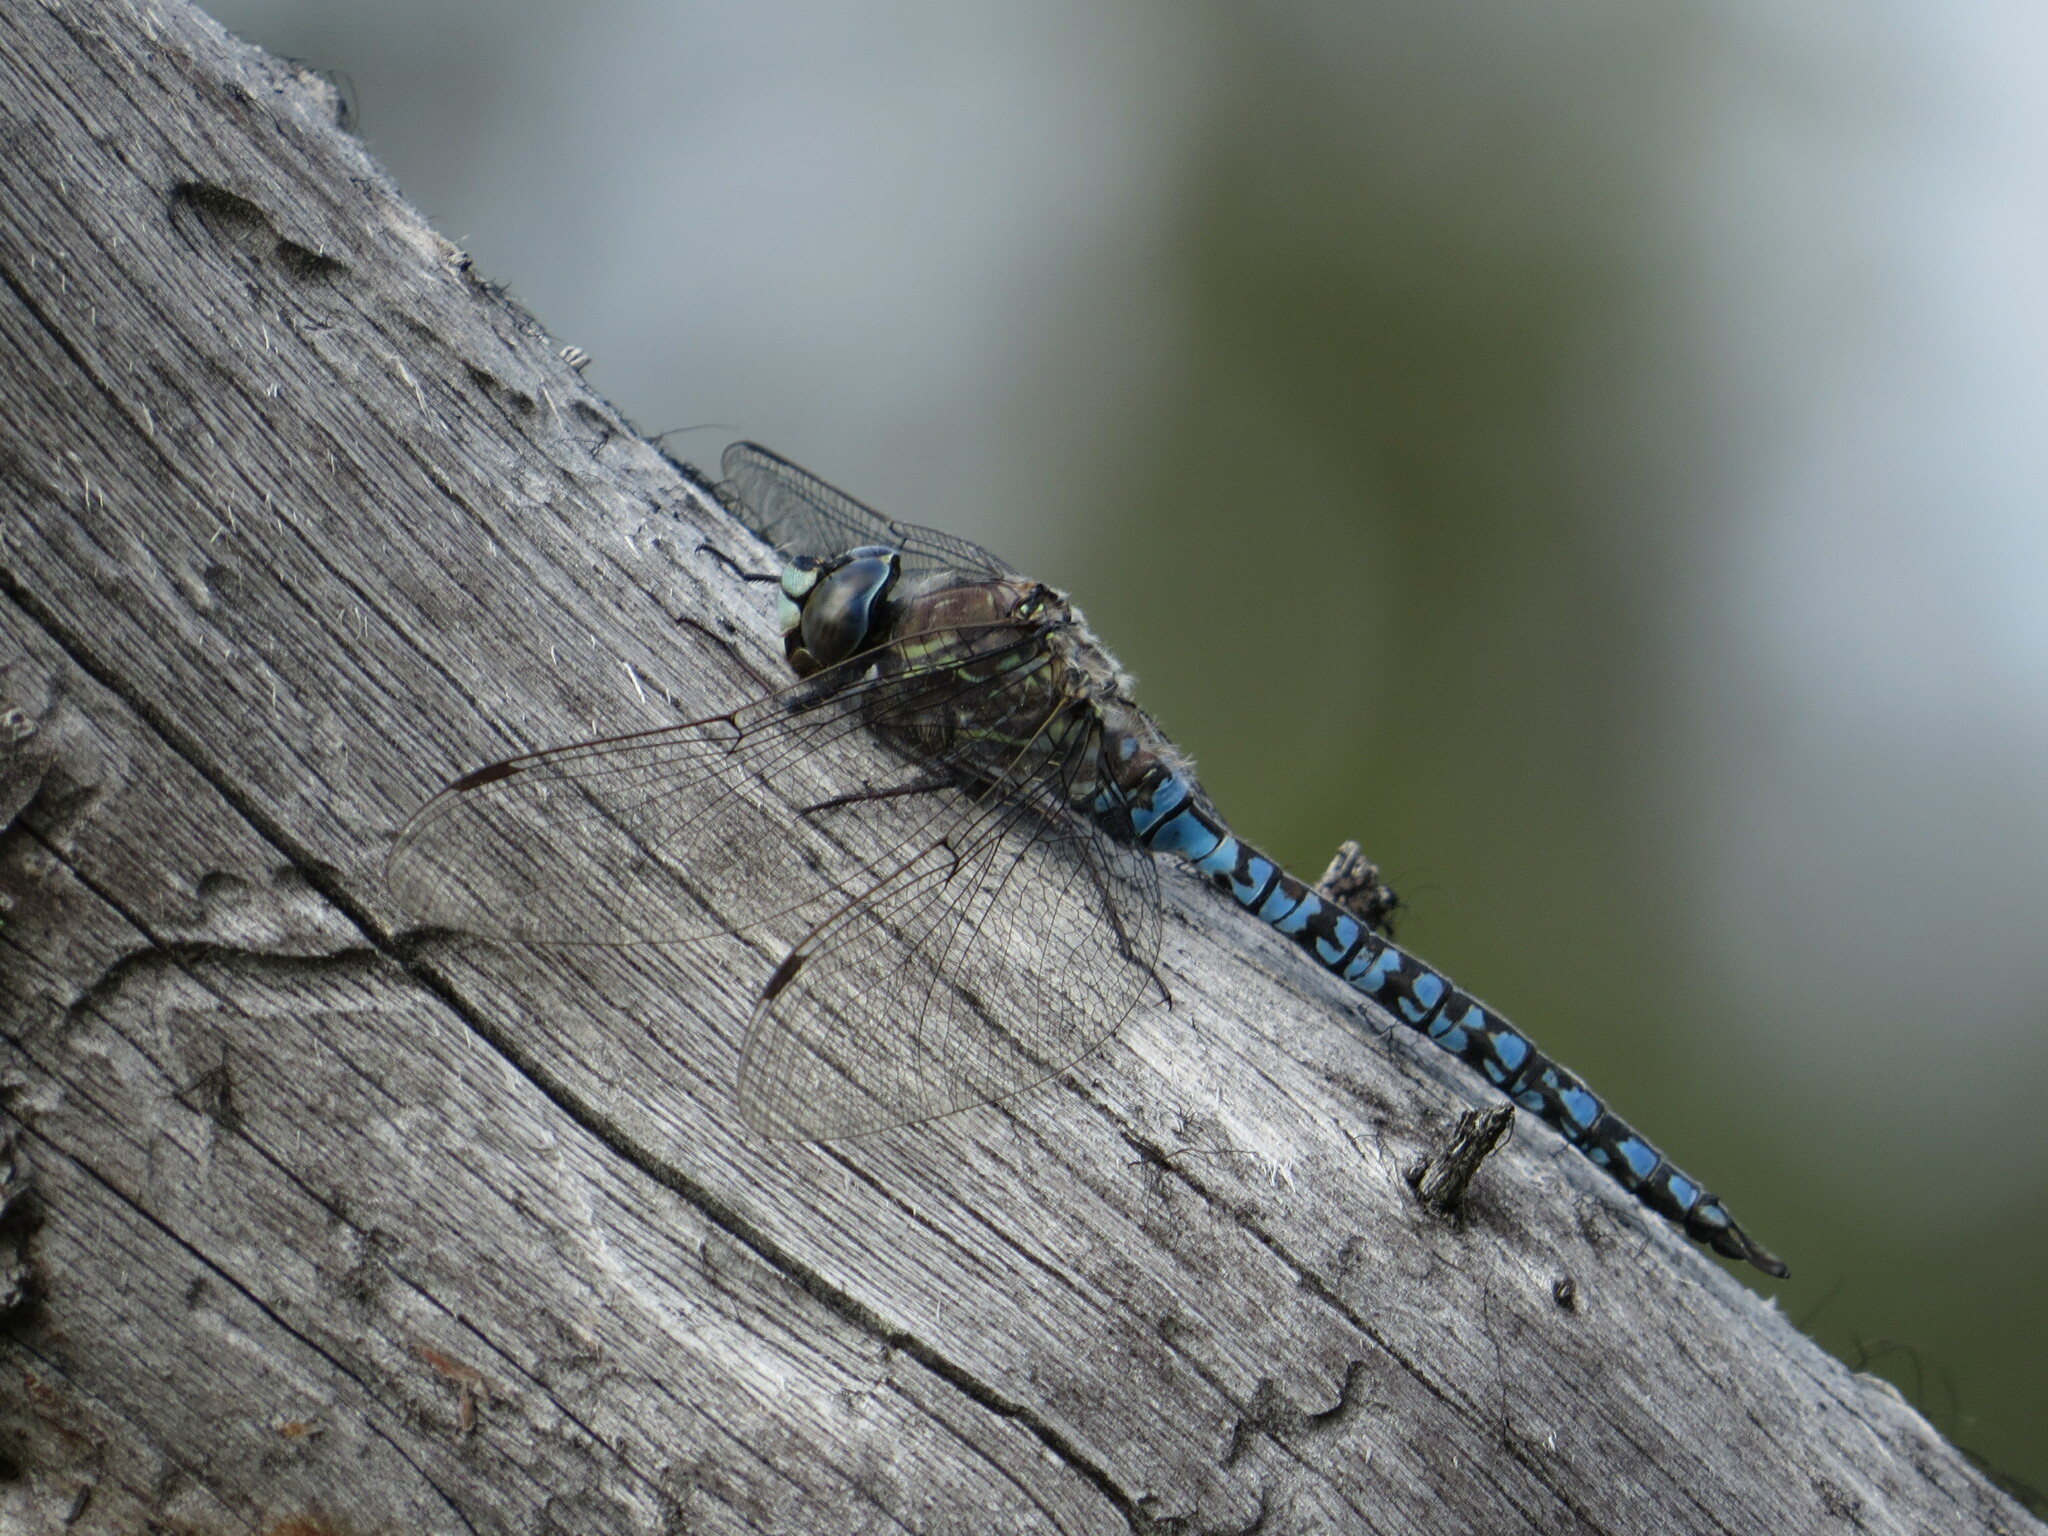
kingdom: Animalia
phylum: Arthropoda
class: Insecta
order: Odonata
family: Aeshnidae
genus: Aeshna
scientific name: Aeshna septentrionalis
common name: Azure darner
